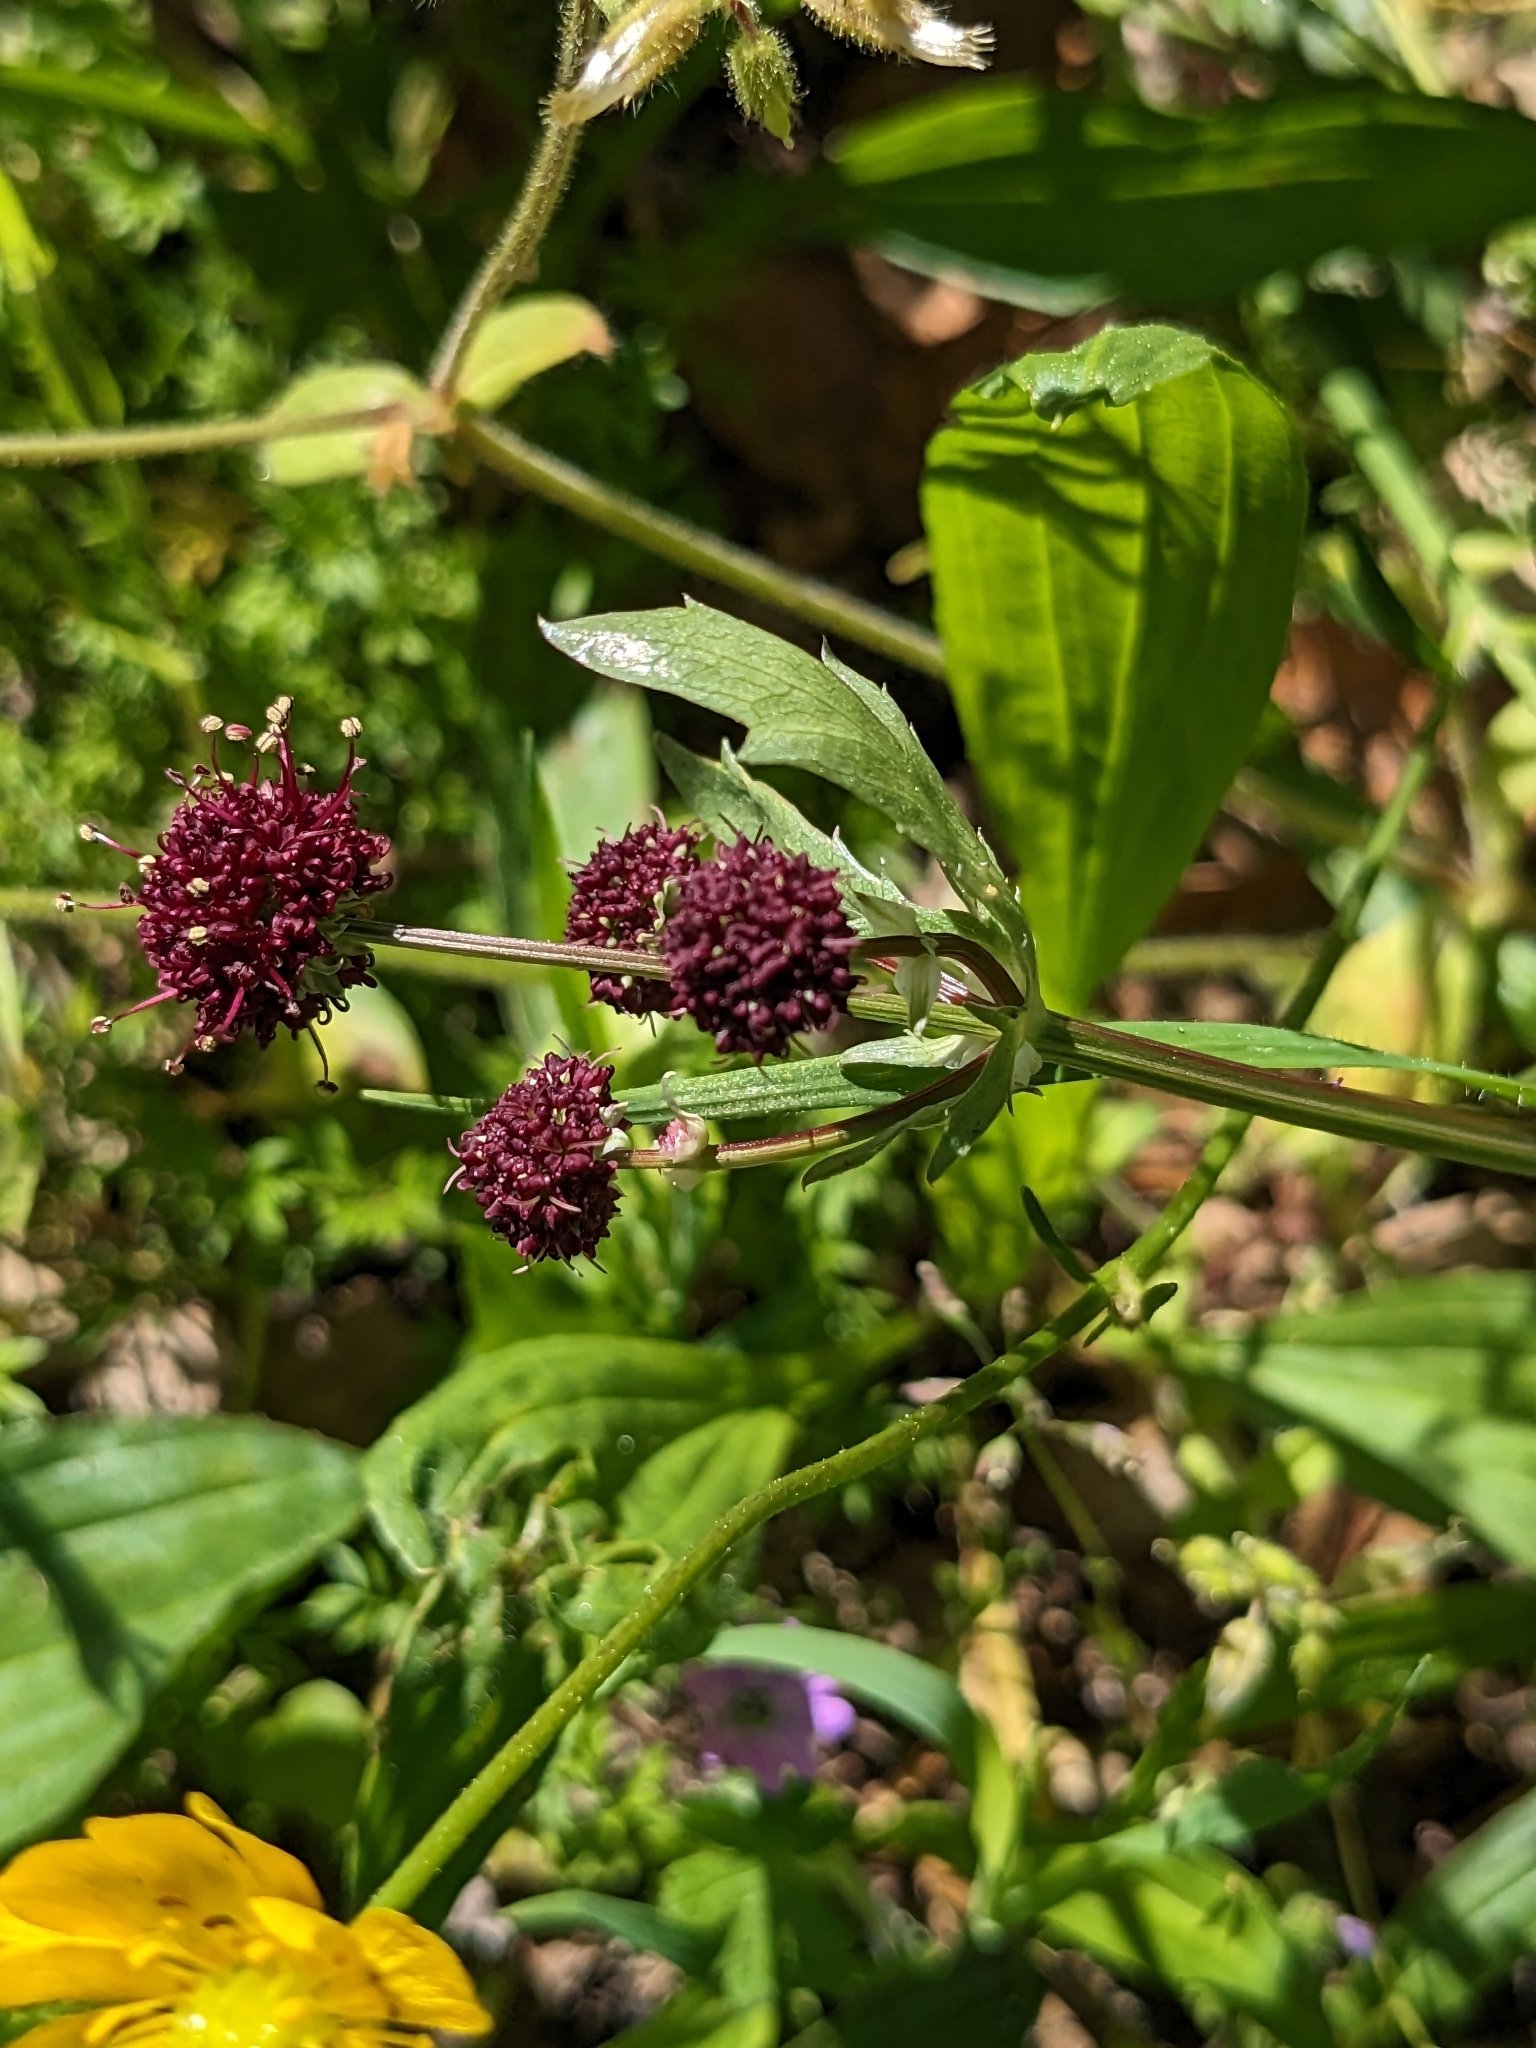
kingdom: Plantae
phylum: Tracheophyta
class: Magnoliopsida
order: Apiales
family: Apiaceae
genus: Sanicula
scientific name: Sanicula bipinnatifida
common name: Shoe-buttons
